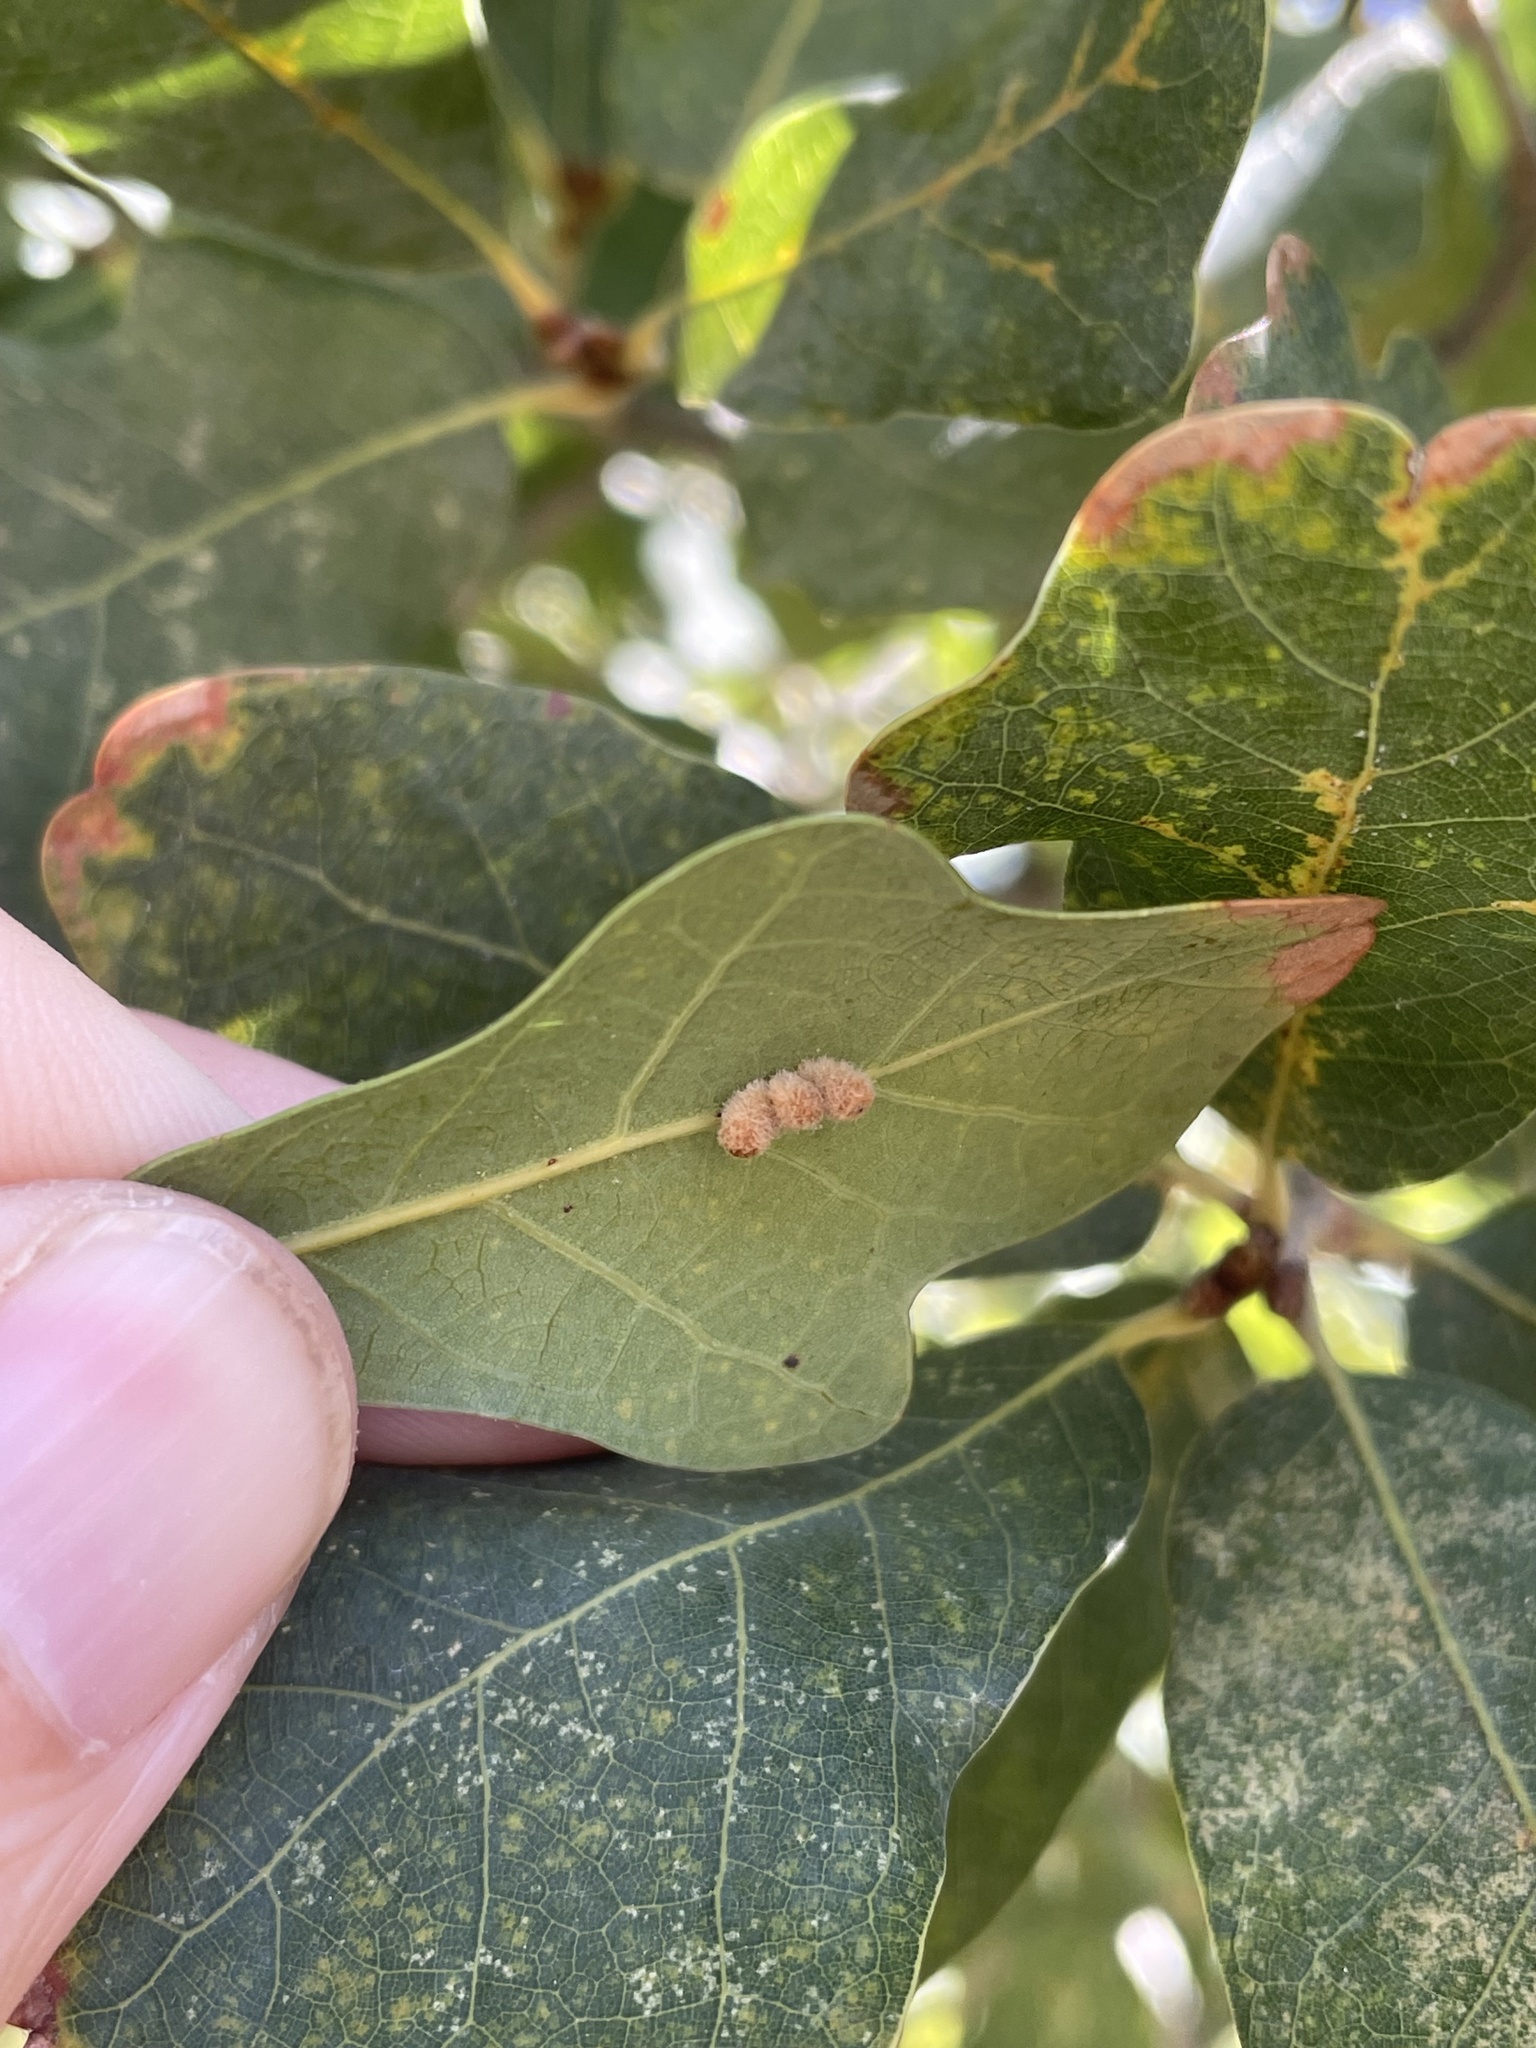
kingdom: Animalia
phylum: Arthropoda
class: Insecta
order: Hymenoptera
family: Cynipidae
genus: Andricus
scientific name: Andricus Druon laceyi
